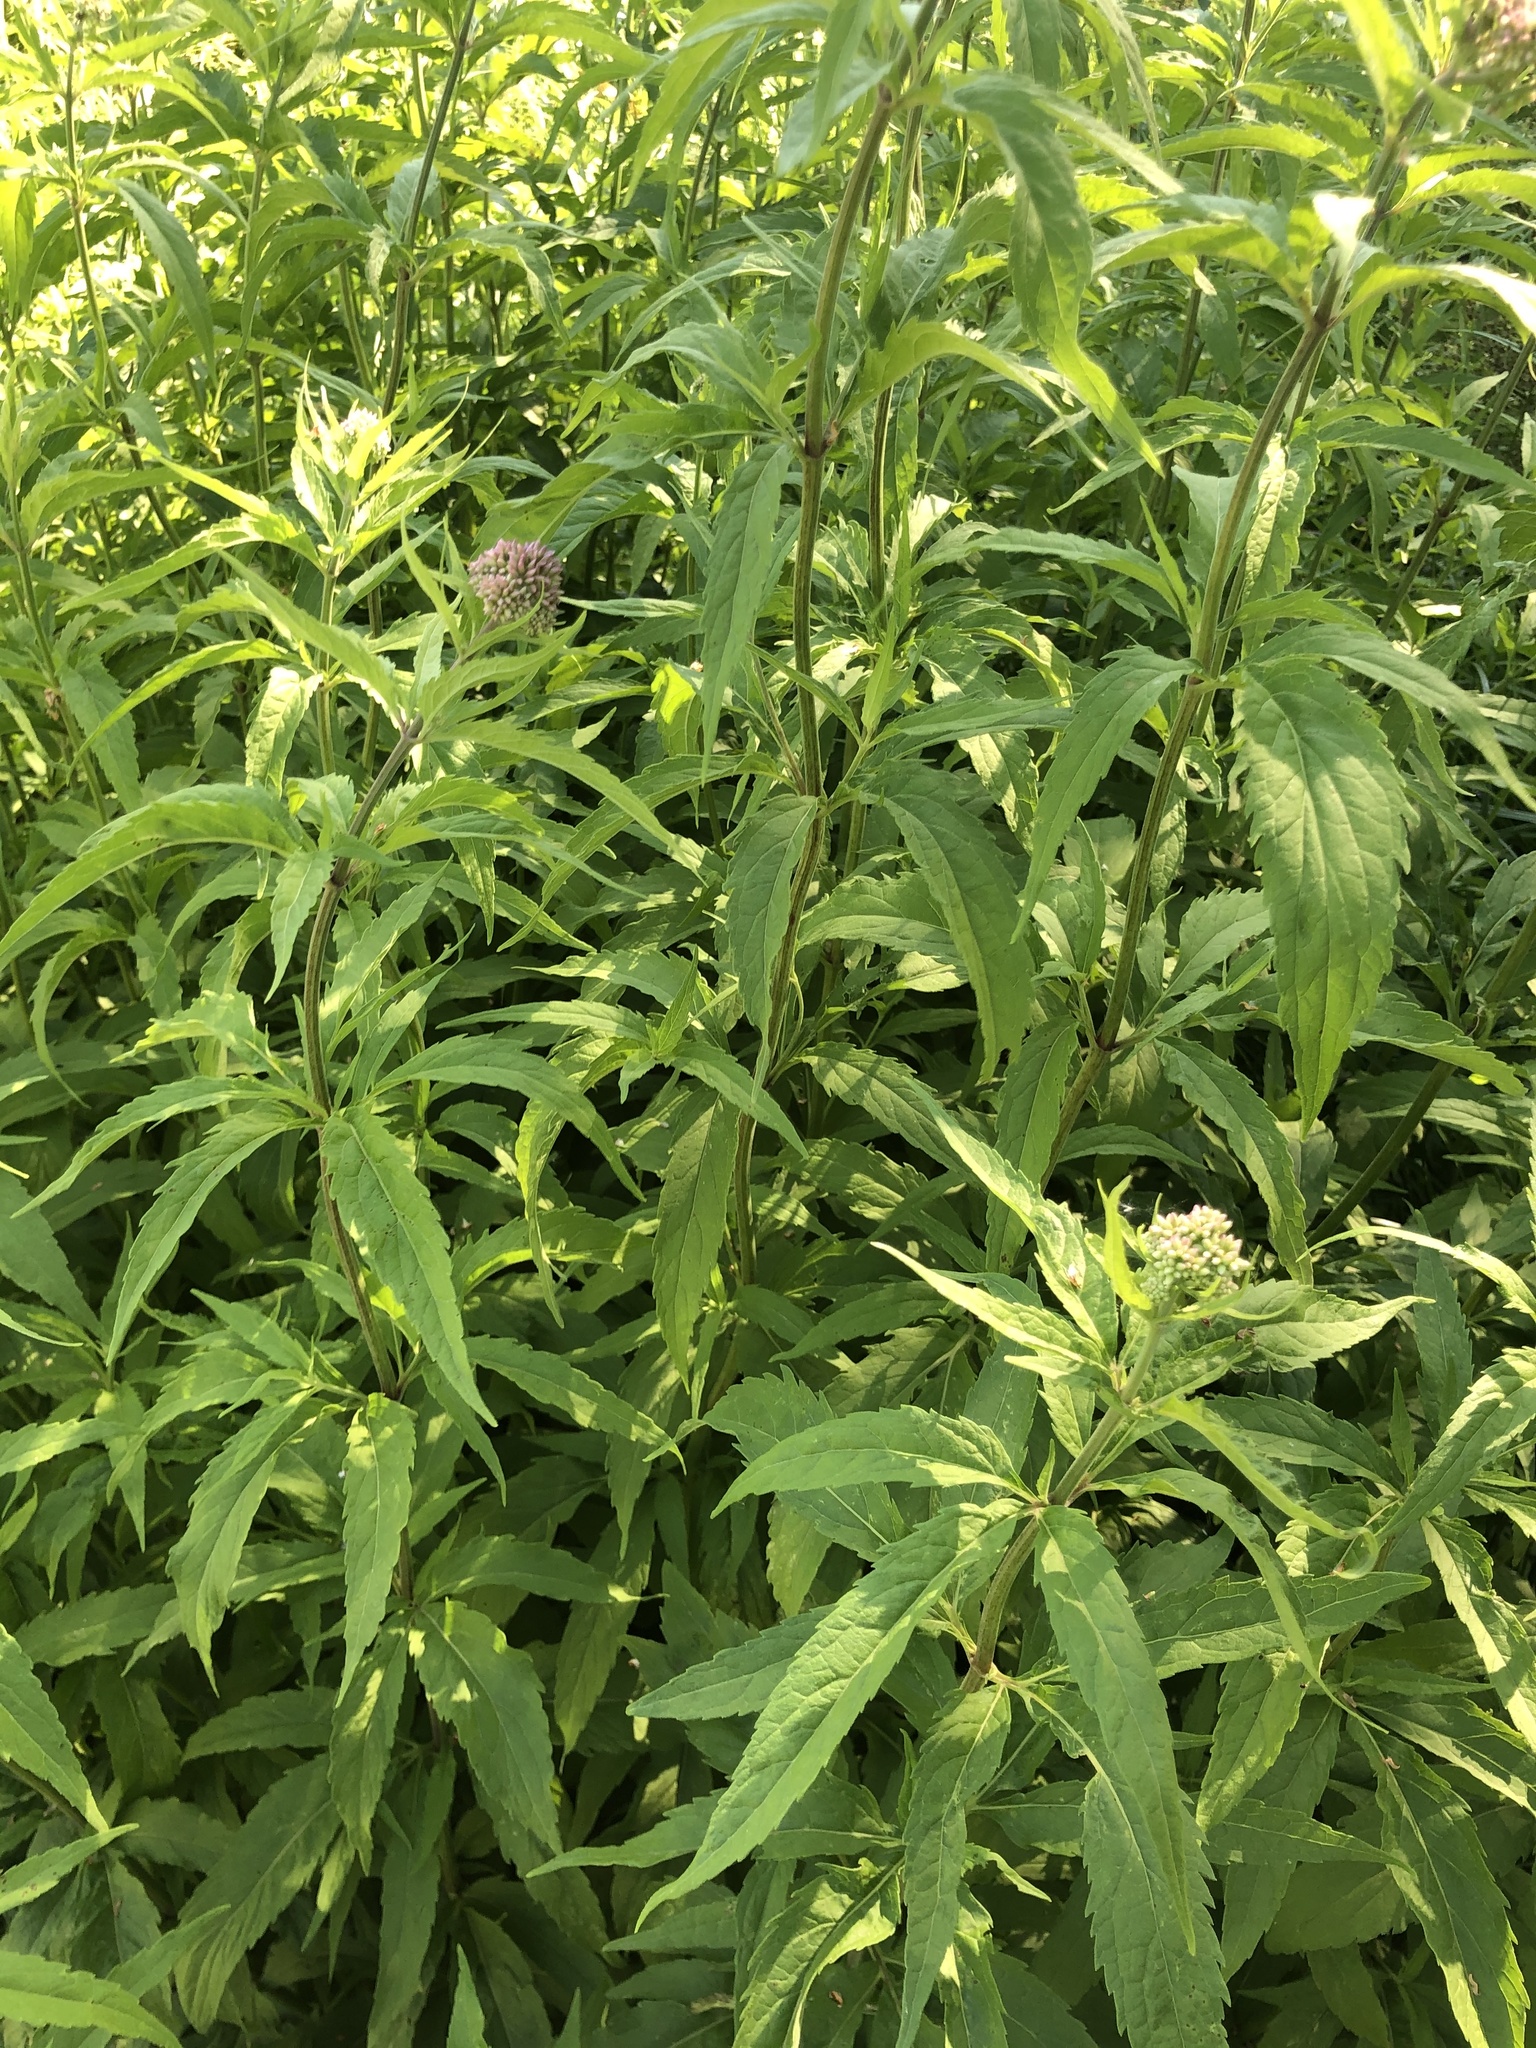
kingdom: Plantae
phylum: Tracheophyta
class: Magnoliopsida
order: Asterales
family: Asteraceae
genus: Eupatorium
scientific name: Eupatorium cannabinum
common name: Hemp-agrimony
